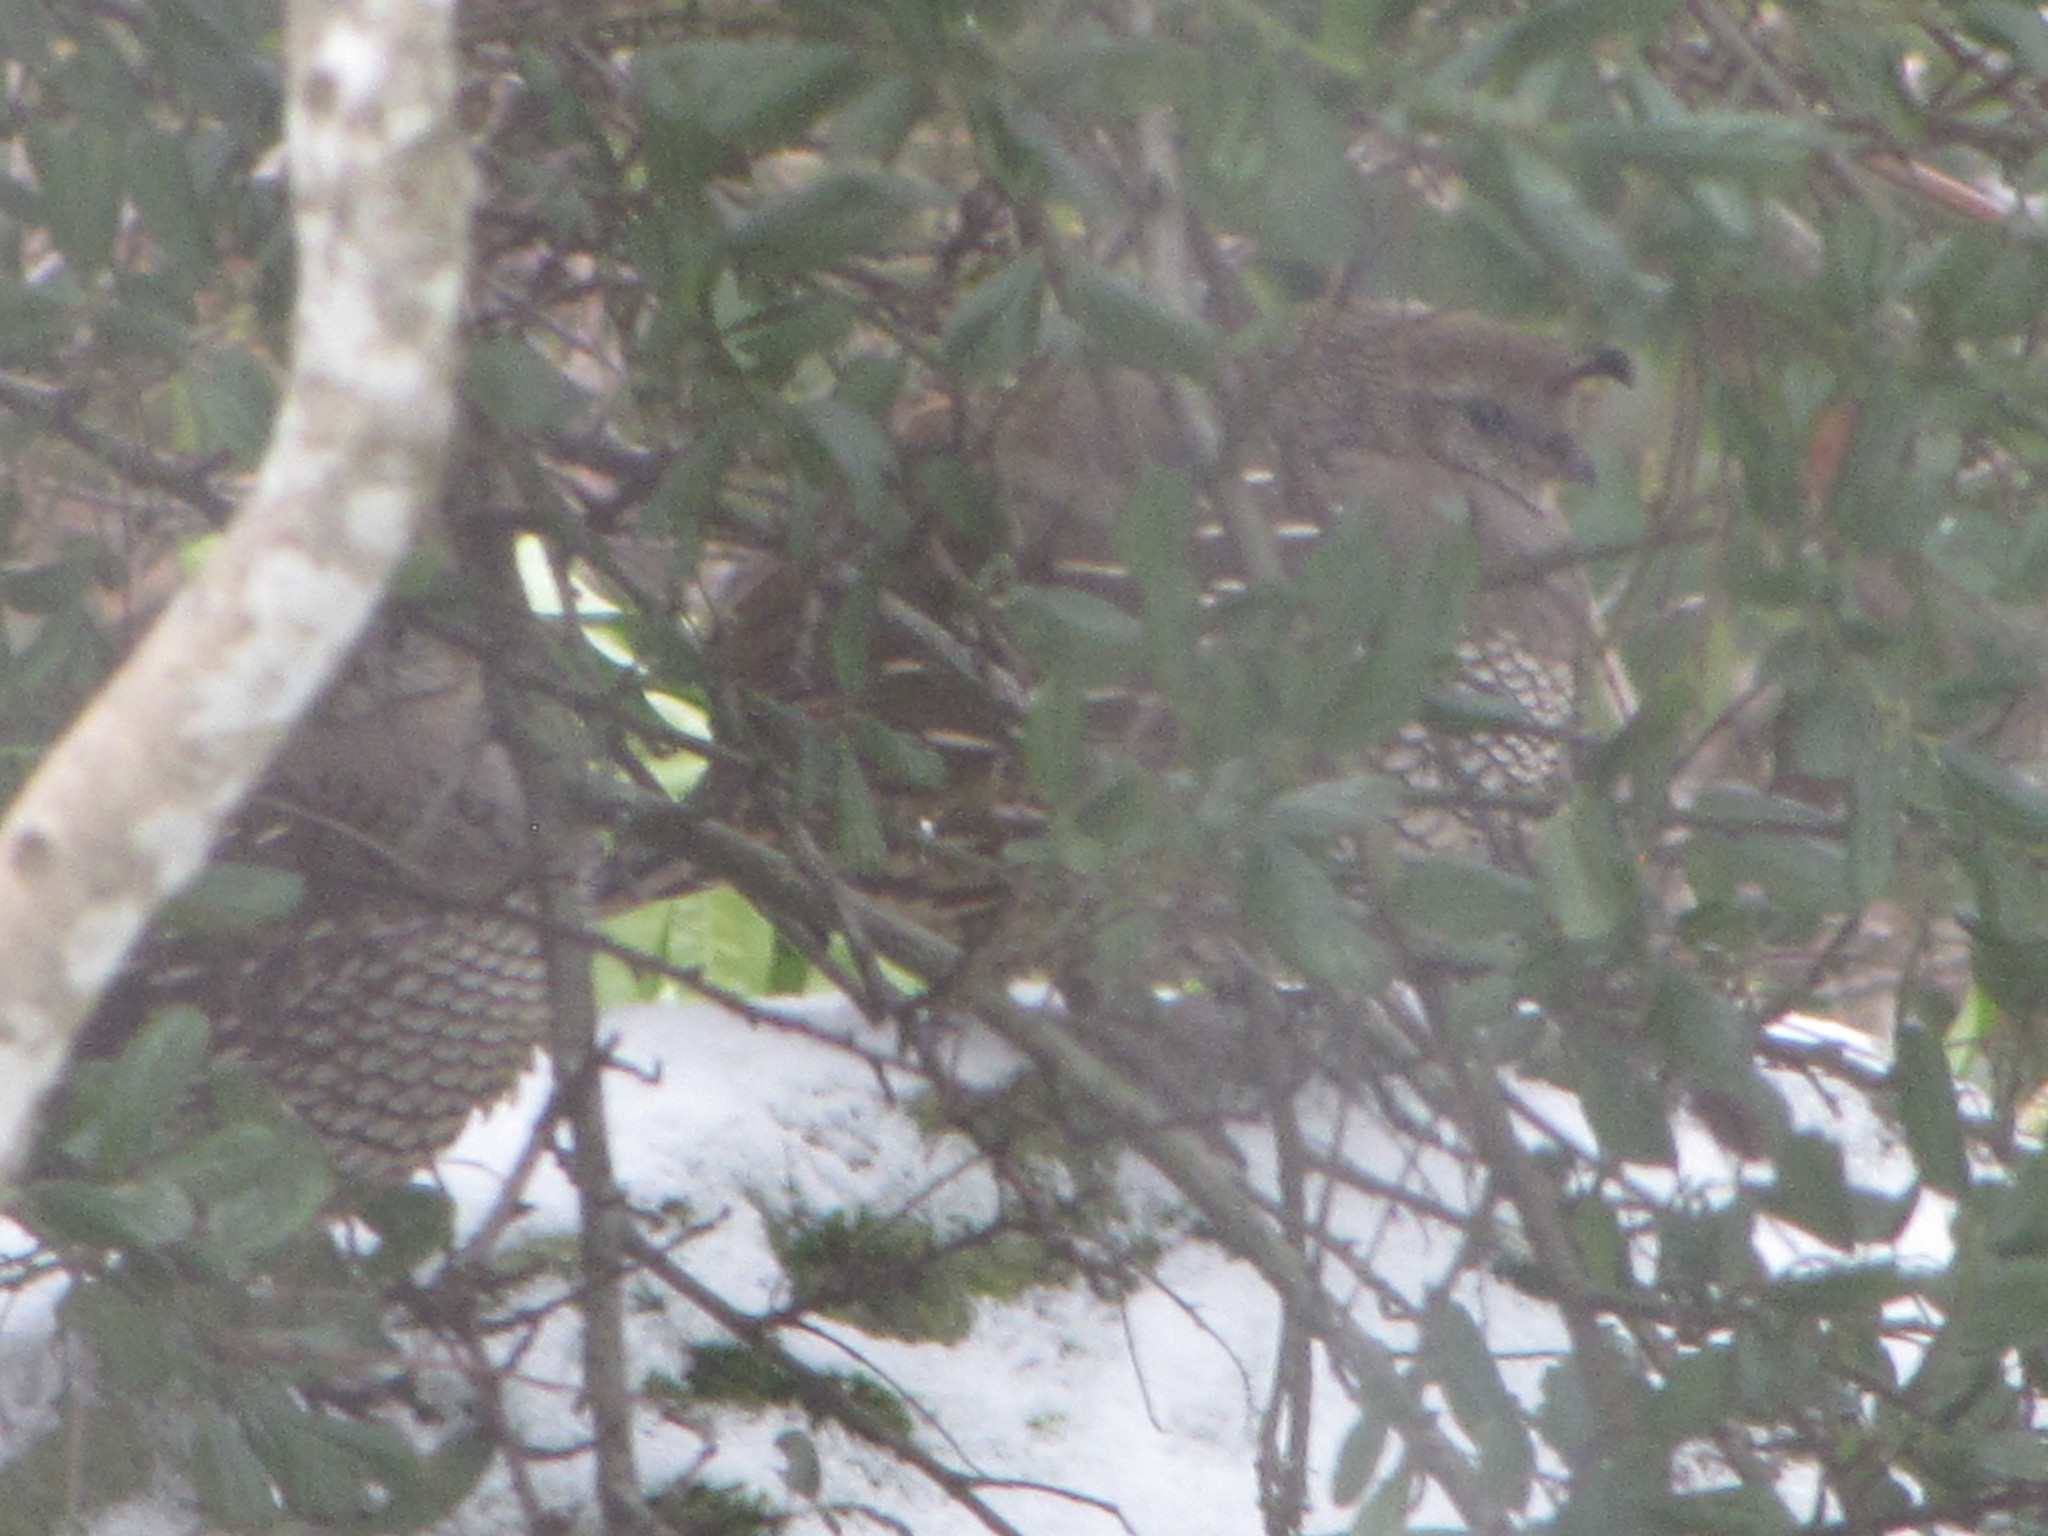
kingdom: Animalia
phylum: Chordata
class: Aves
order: Galliformes
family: Odontophoridae
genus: Callipepla
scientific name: Callipepla californica
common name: California quail
